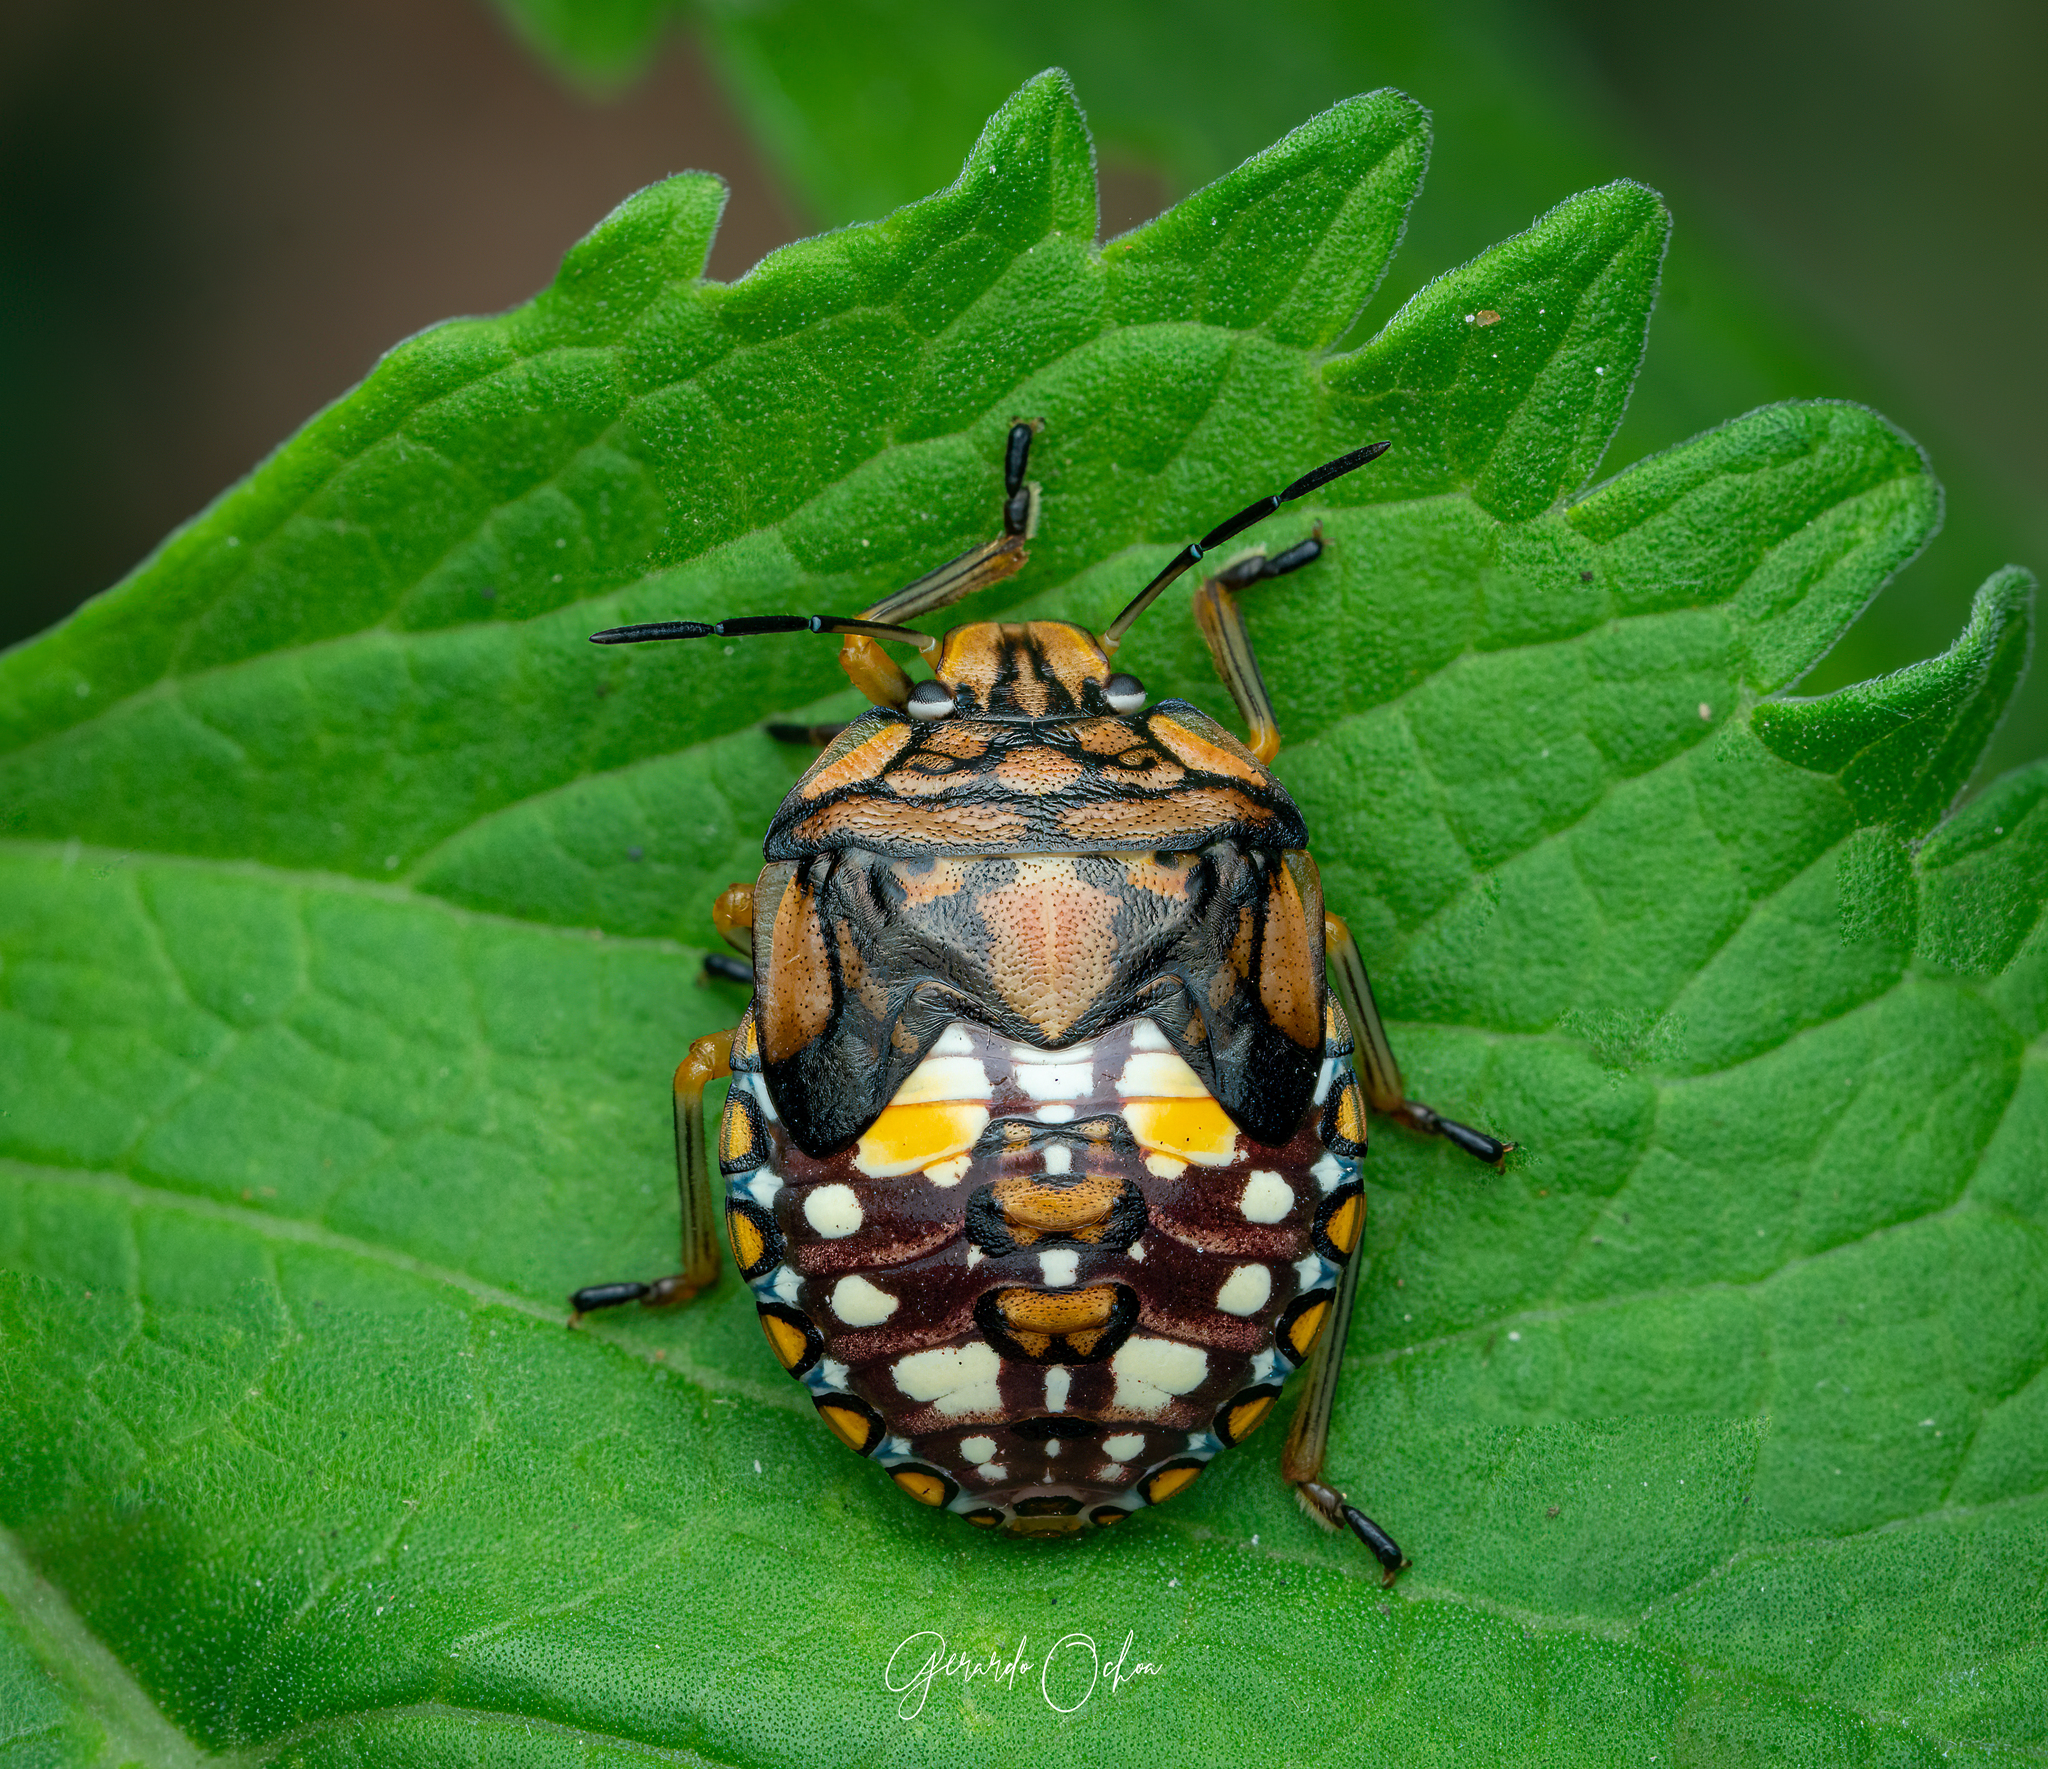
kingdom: Animalia
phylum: Arthropoda
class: Insecta
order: Hemiptera
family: Pentatomidae
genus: Acrosternum
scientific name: Acrosternum marginatum
